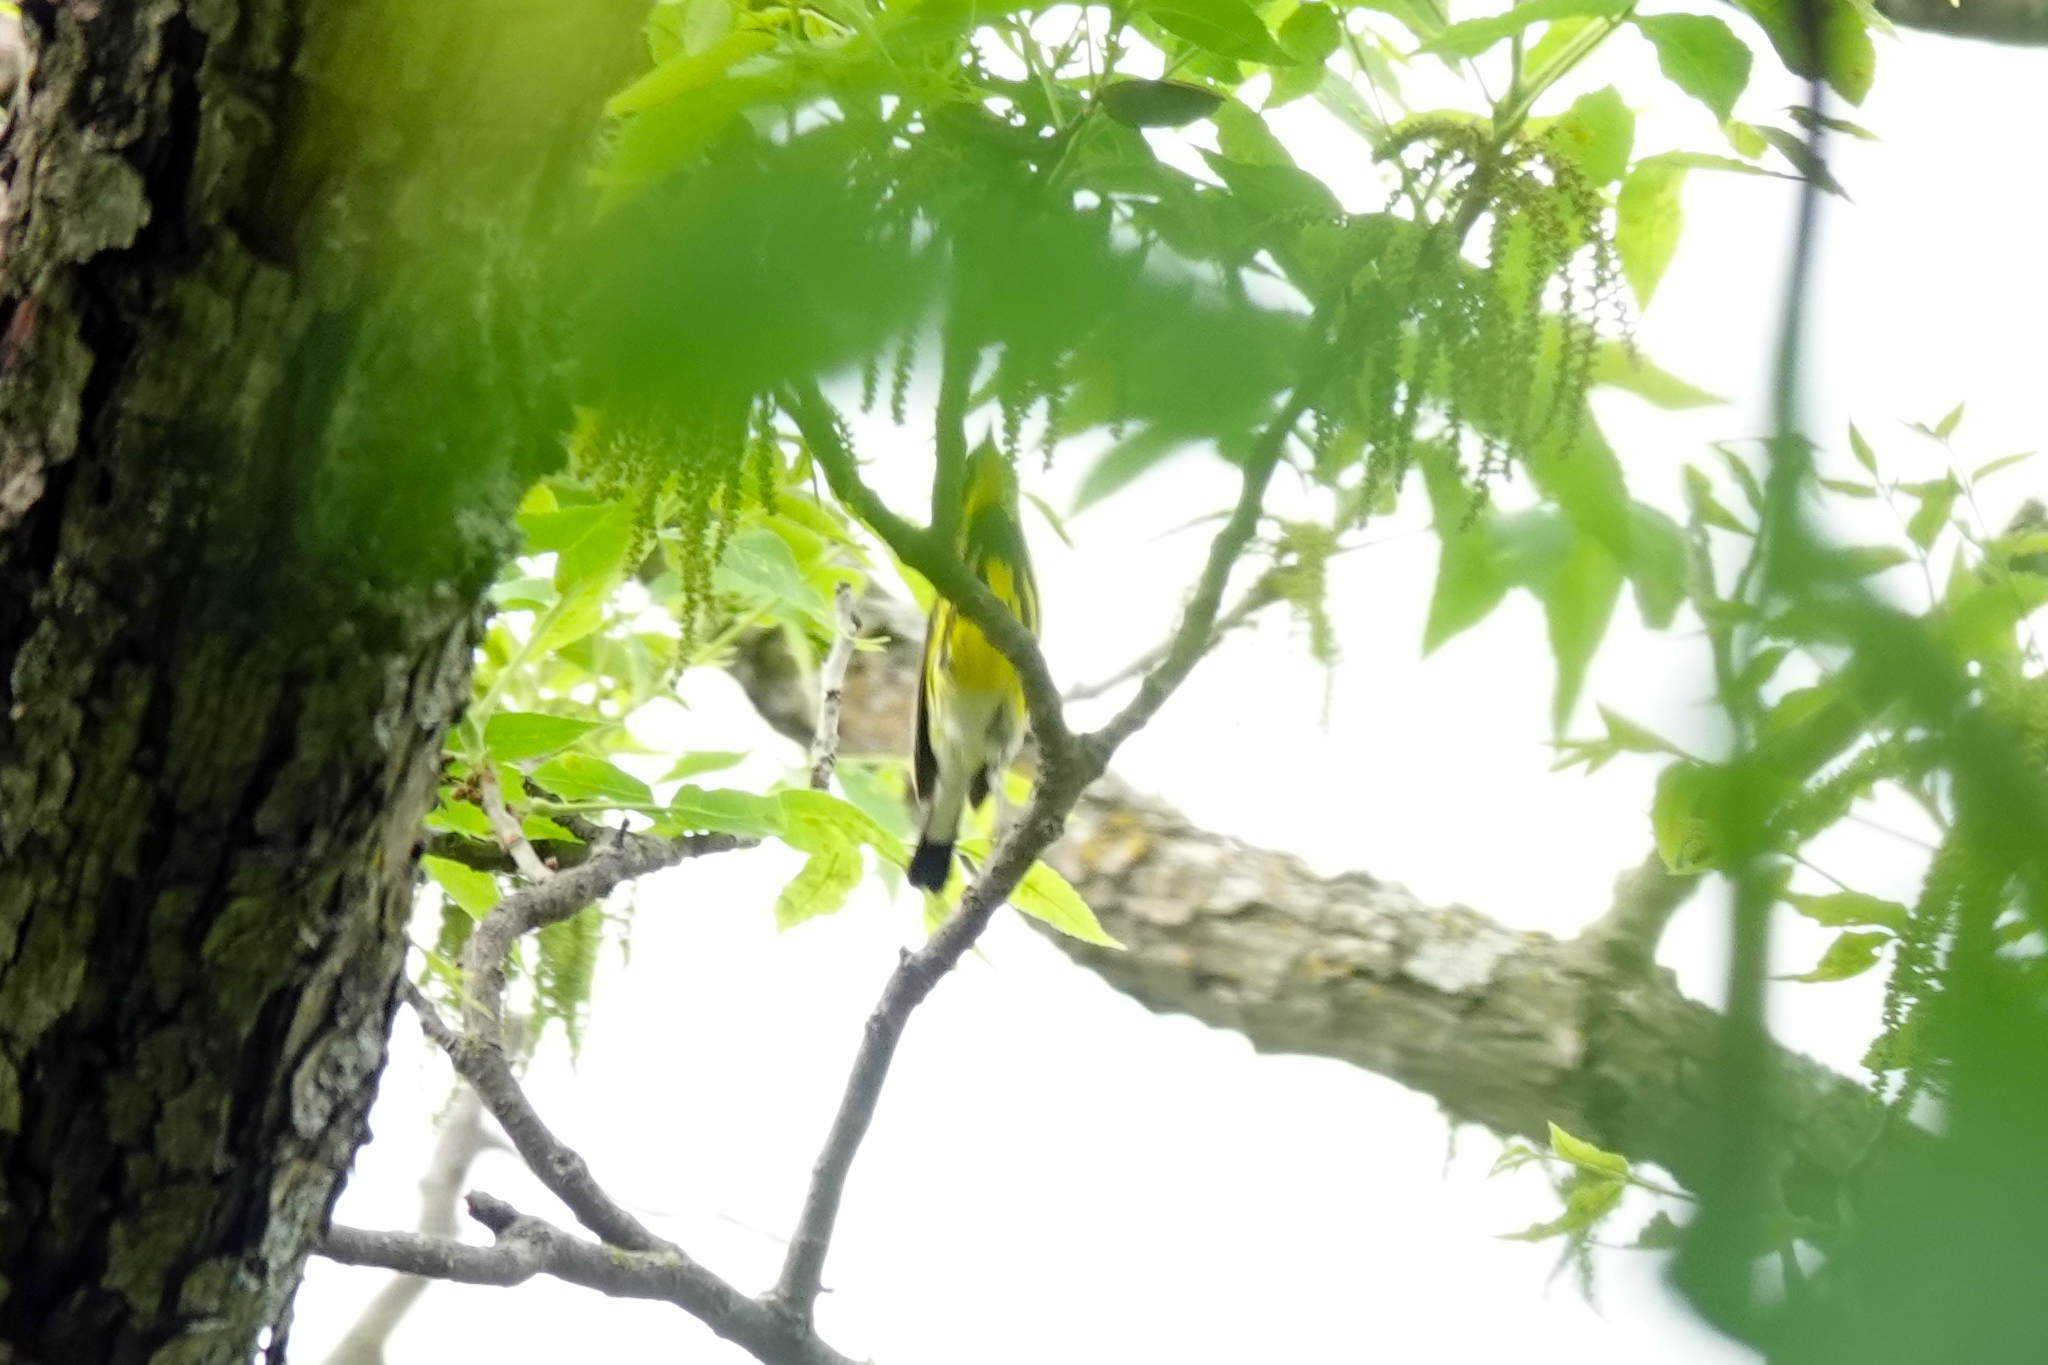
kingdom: Animalia
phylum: Chordata
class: Aves
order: Passeriformes
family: Parulidae
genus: Setophaga
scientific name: Setophaga magnolia
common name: Magnolia warbler
